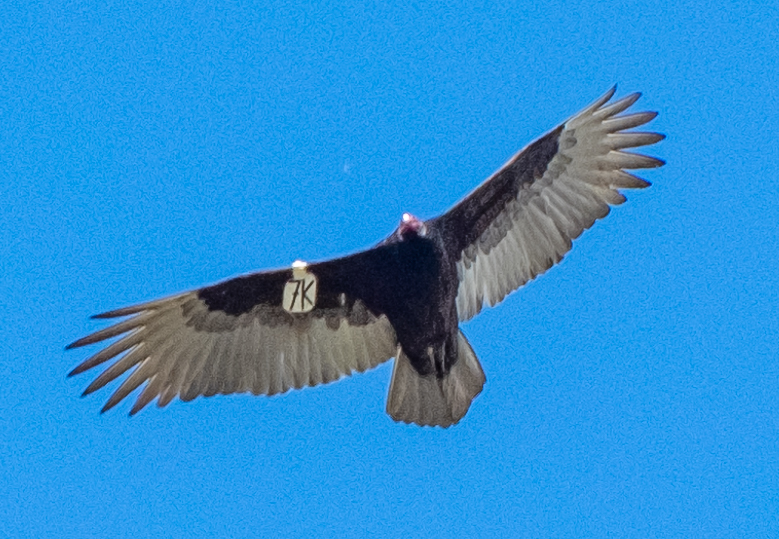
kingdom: Animalia
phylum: Chordata
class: Aves
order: Accipitriformes
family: Cathartidae
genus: Cathartes
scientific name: Cathartes aura
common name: Turkey vulture
